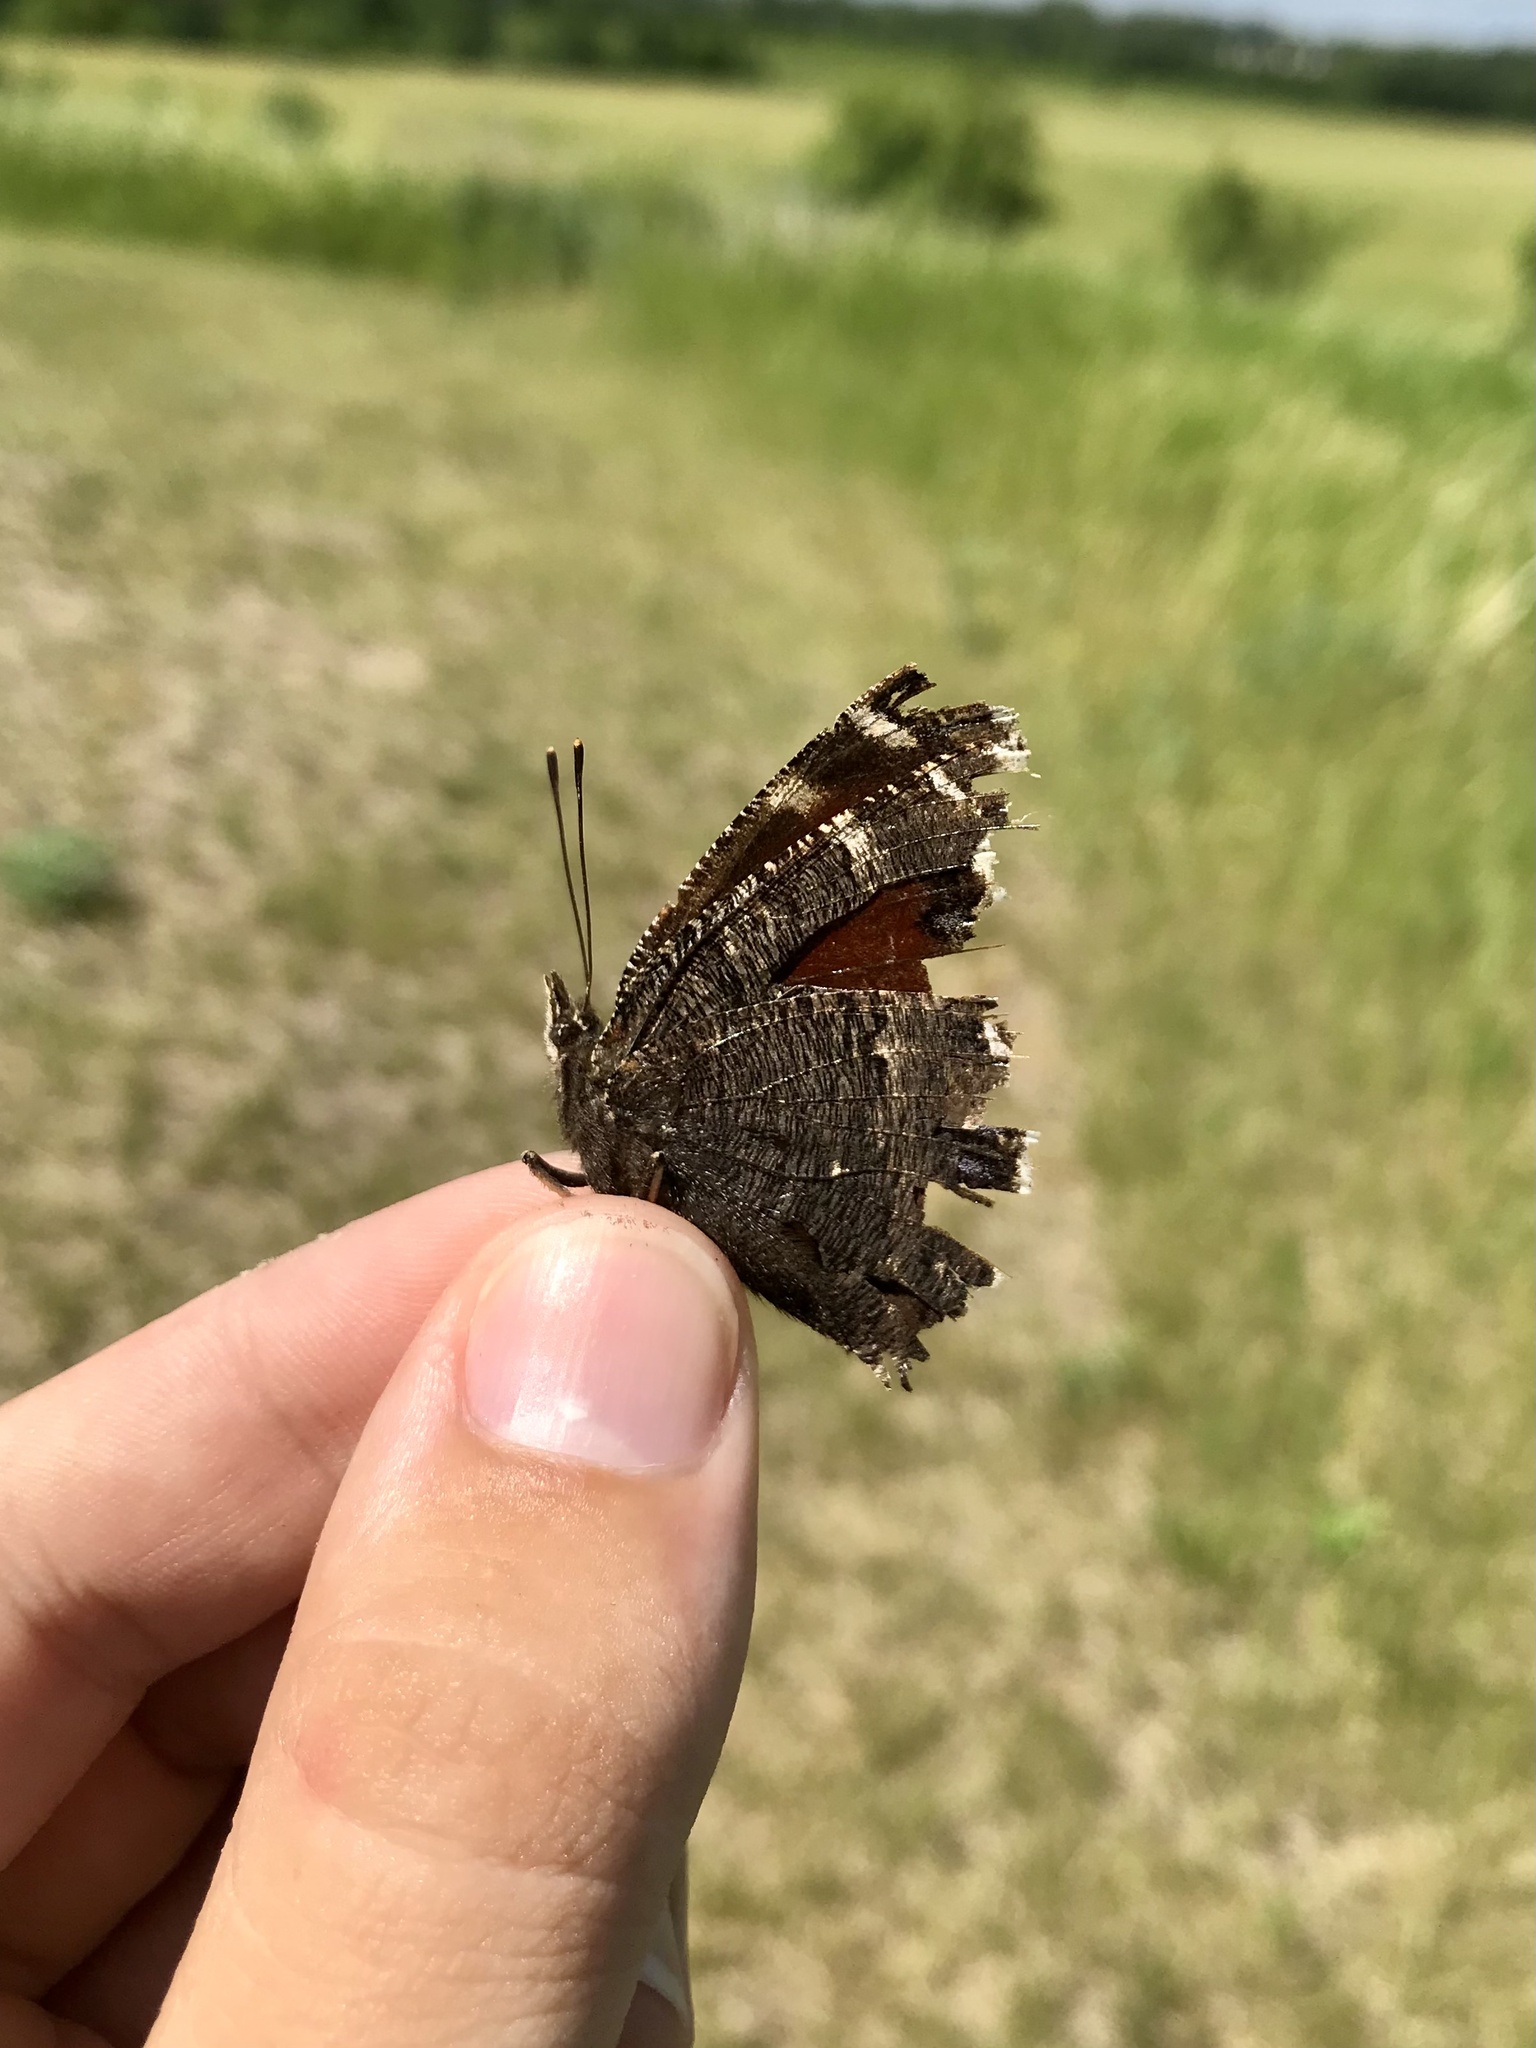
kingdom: Animalia
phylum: Arthropoda
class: Insecta
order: Lepidoptera
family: Nymphalidae
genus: Nymphalis
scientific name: Nymphalis antiopa
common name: Camberwell beauty
